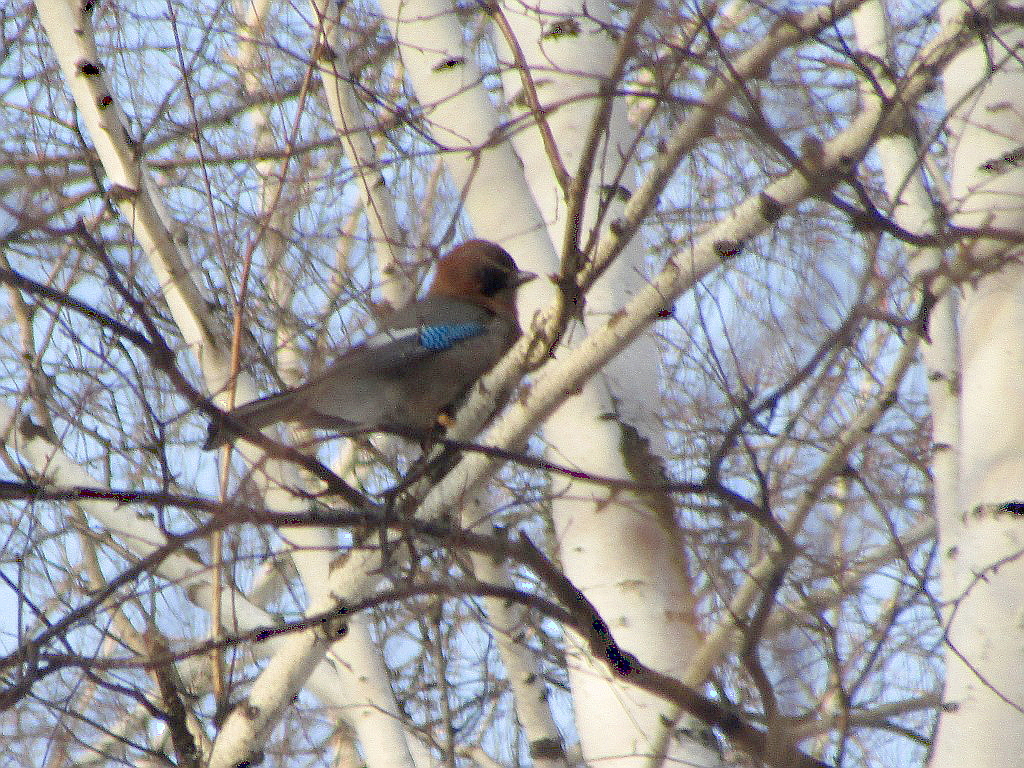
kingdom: Animalia
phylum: Chordata
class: Aves
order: Passeriformes
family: Corvidae
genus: Garrulus
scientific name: Garrulus glandarius
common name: Eurasian jay
